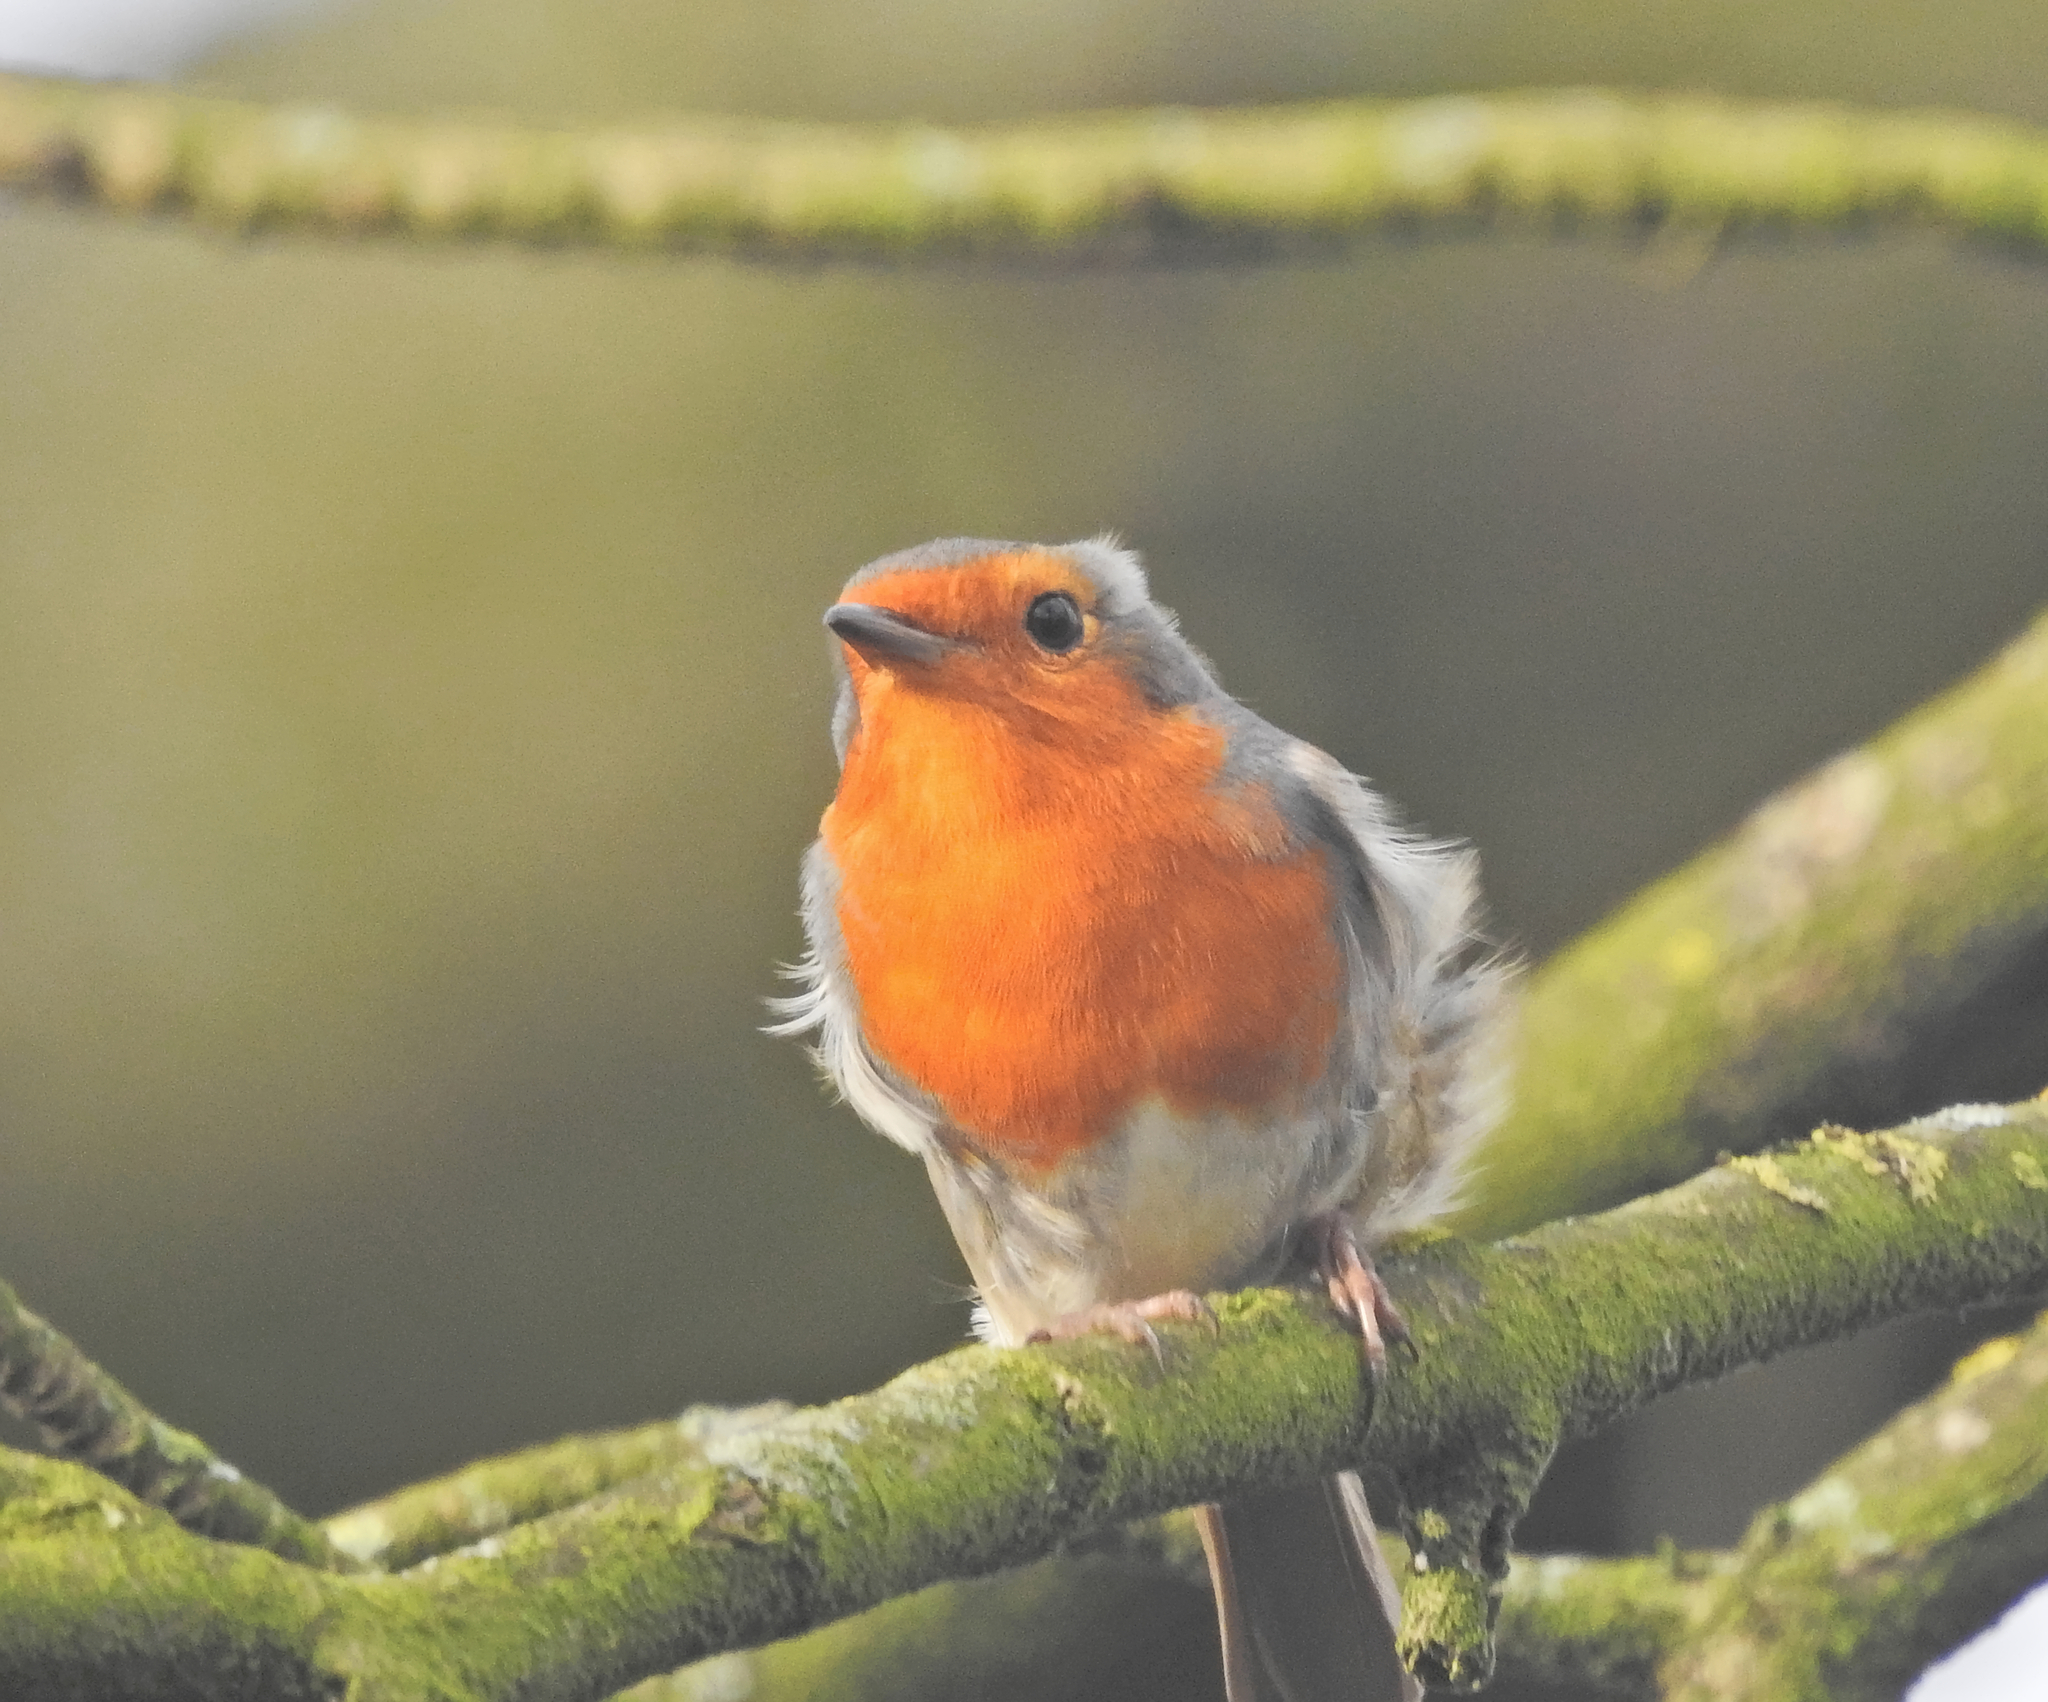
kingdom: Animalia
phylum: Chordata
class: Aves
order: Passeriformes
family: Muscicapidae
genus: Erithacus
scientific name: Erithacus rubecula
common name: European robin
